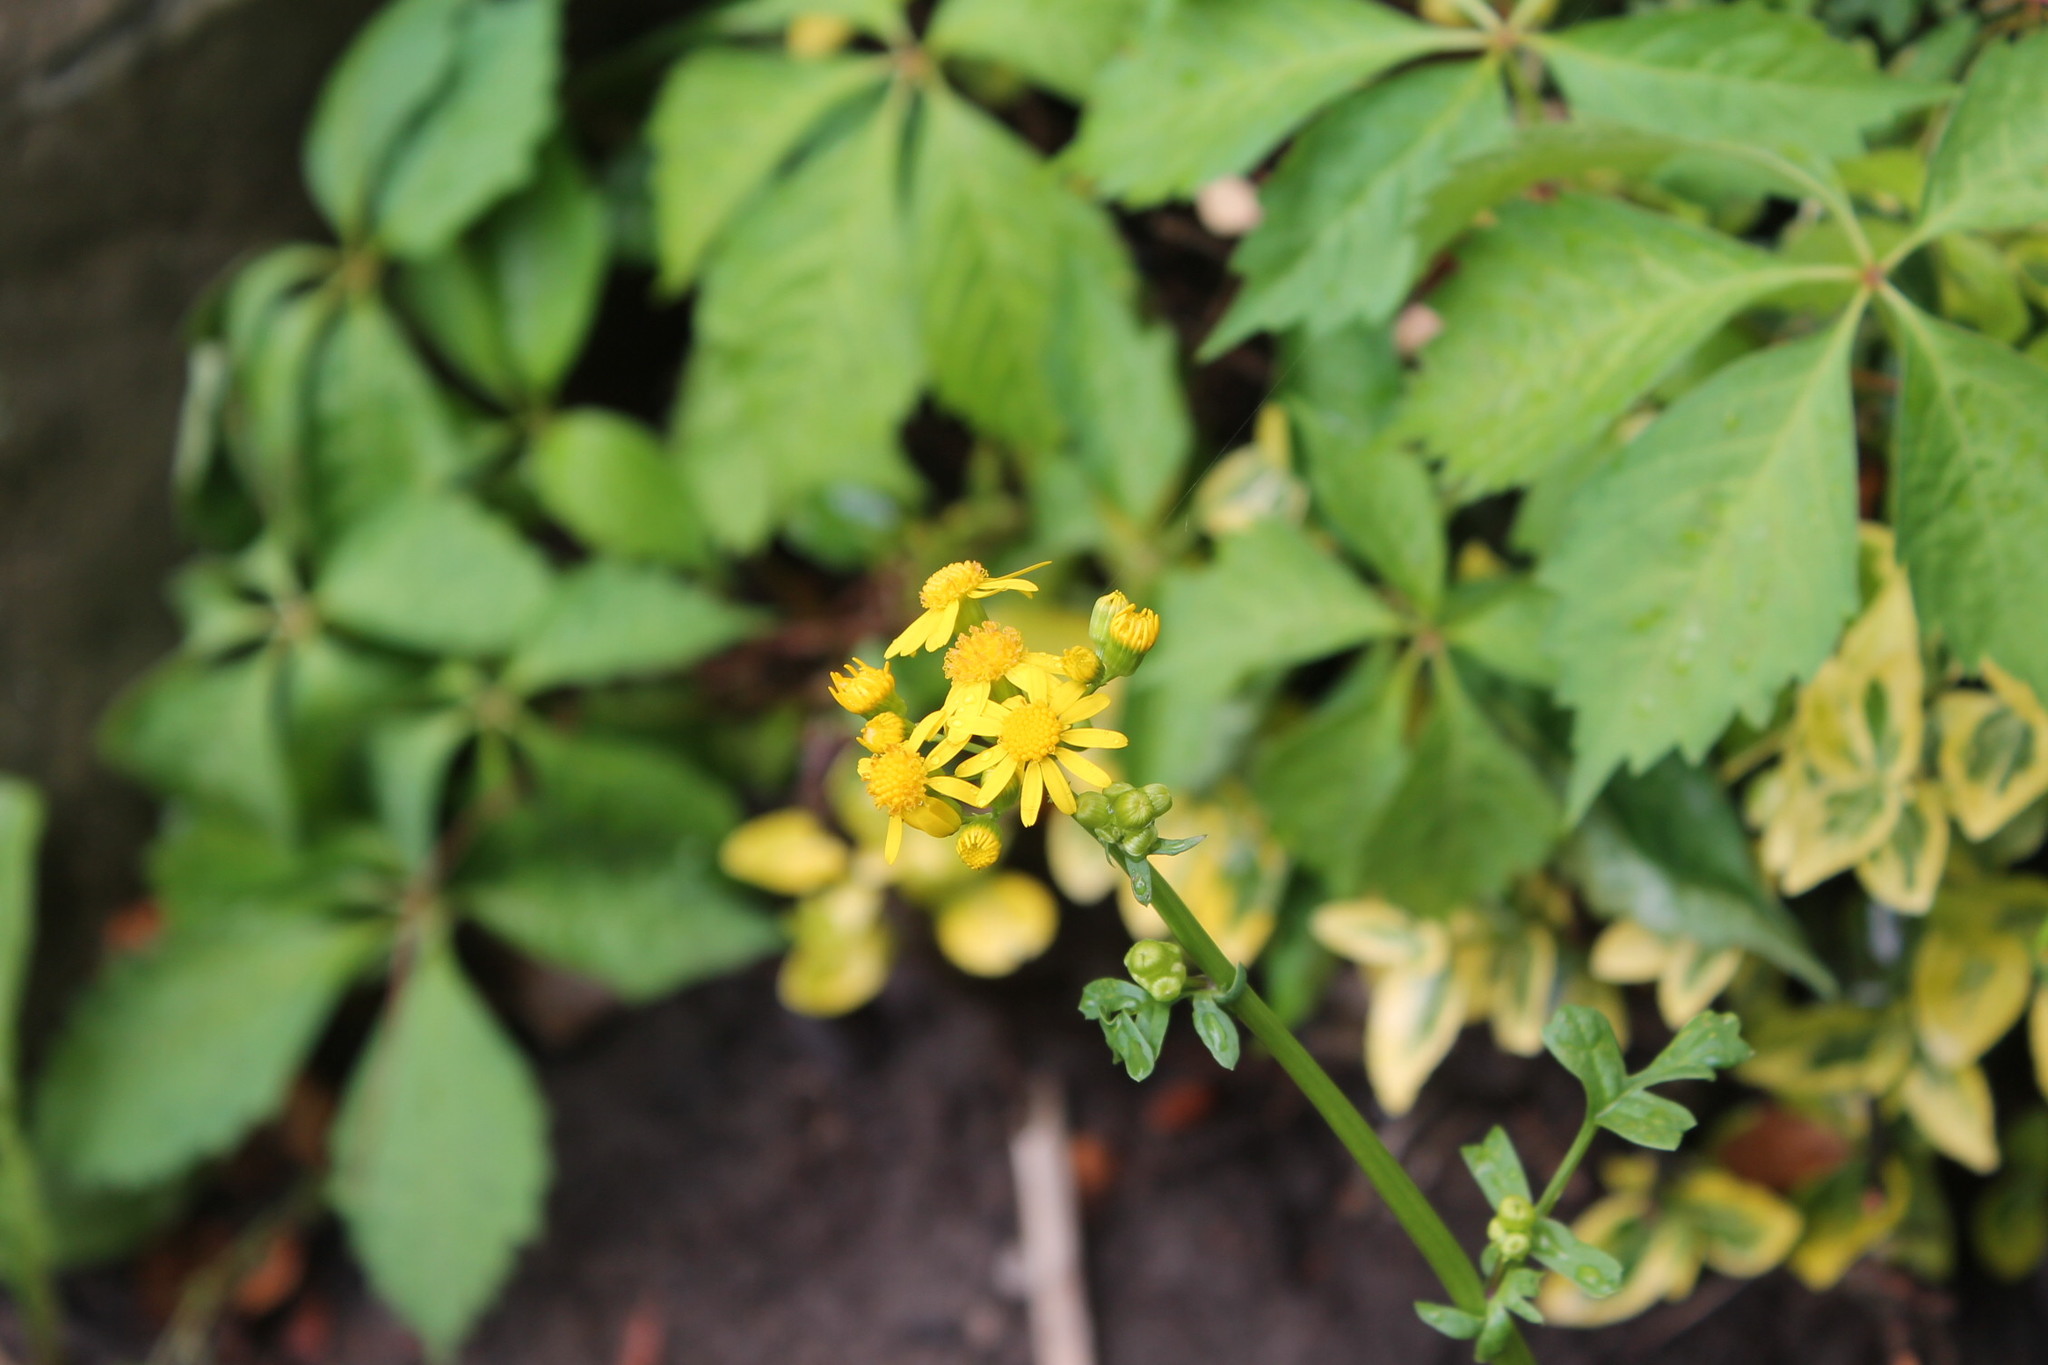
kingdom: Plantae
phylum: Tracheophyta
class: Magnoliopsida
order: Asterales
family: Asteraceae
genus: Packera
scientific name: Packera glabella
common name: Butterweed
